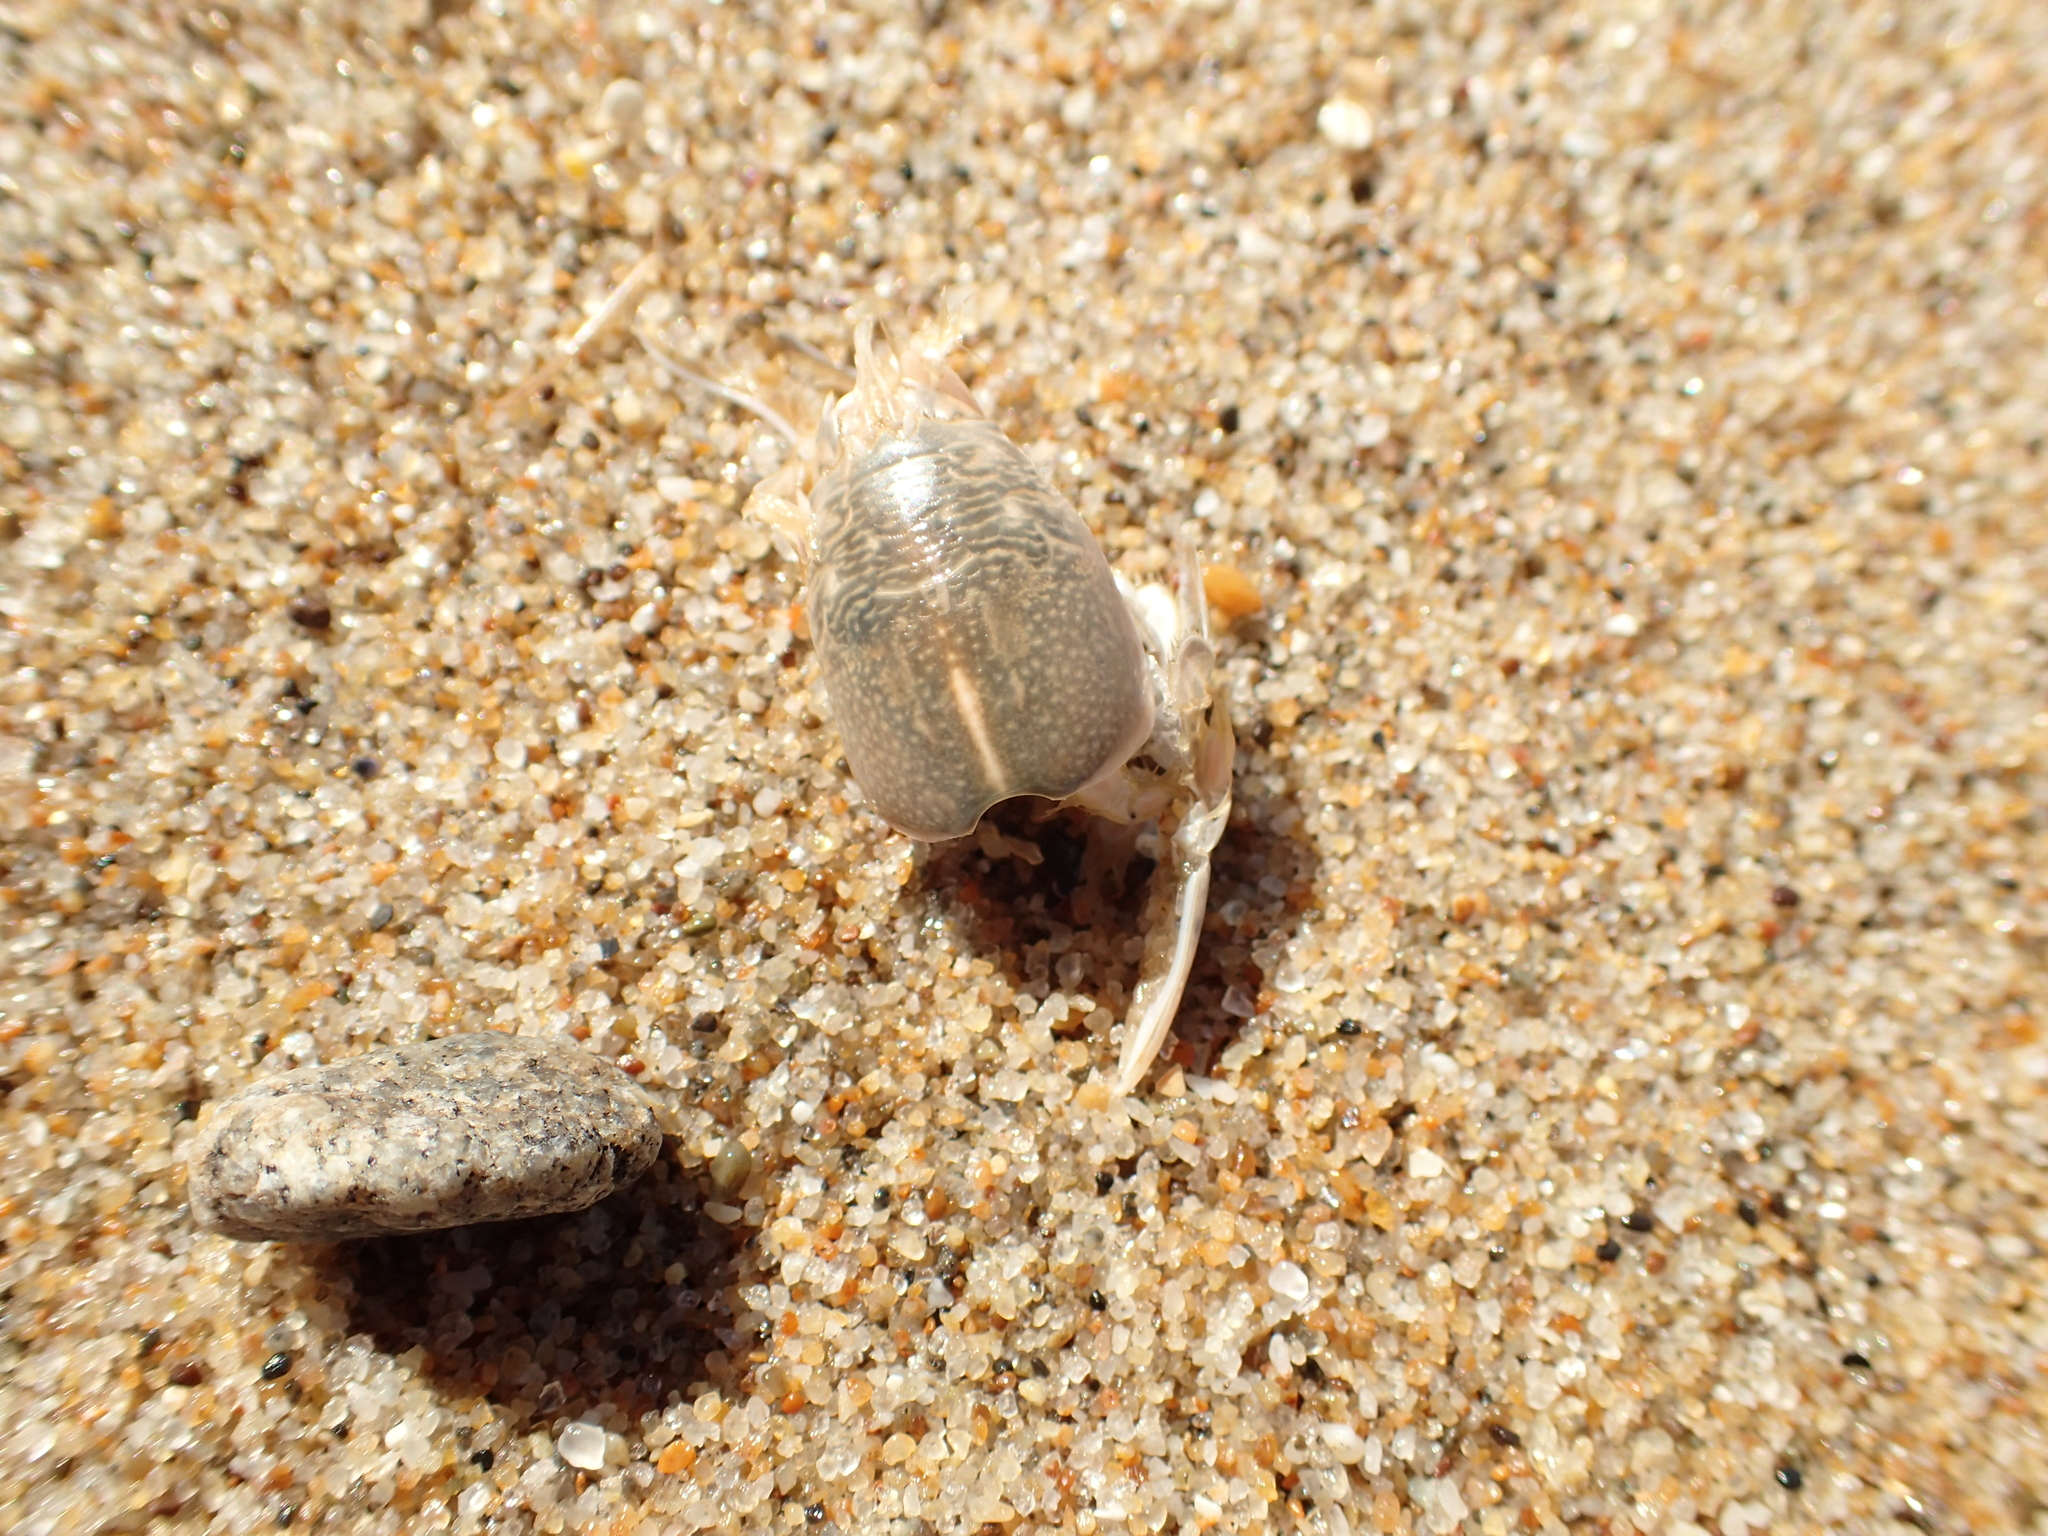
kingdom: Animalia
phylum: Arthropoda
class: Malacostraca
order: Decapoda
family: Hippidae
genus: Emerita
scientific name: Emerita analoga
